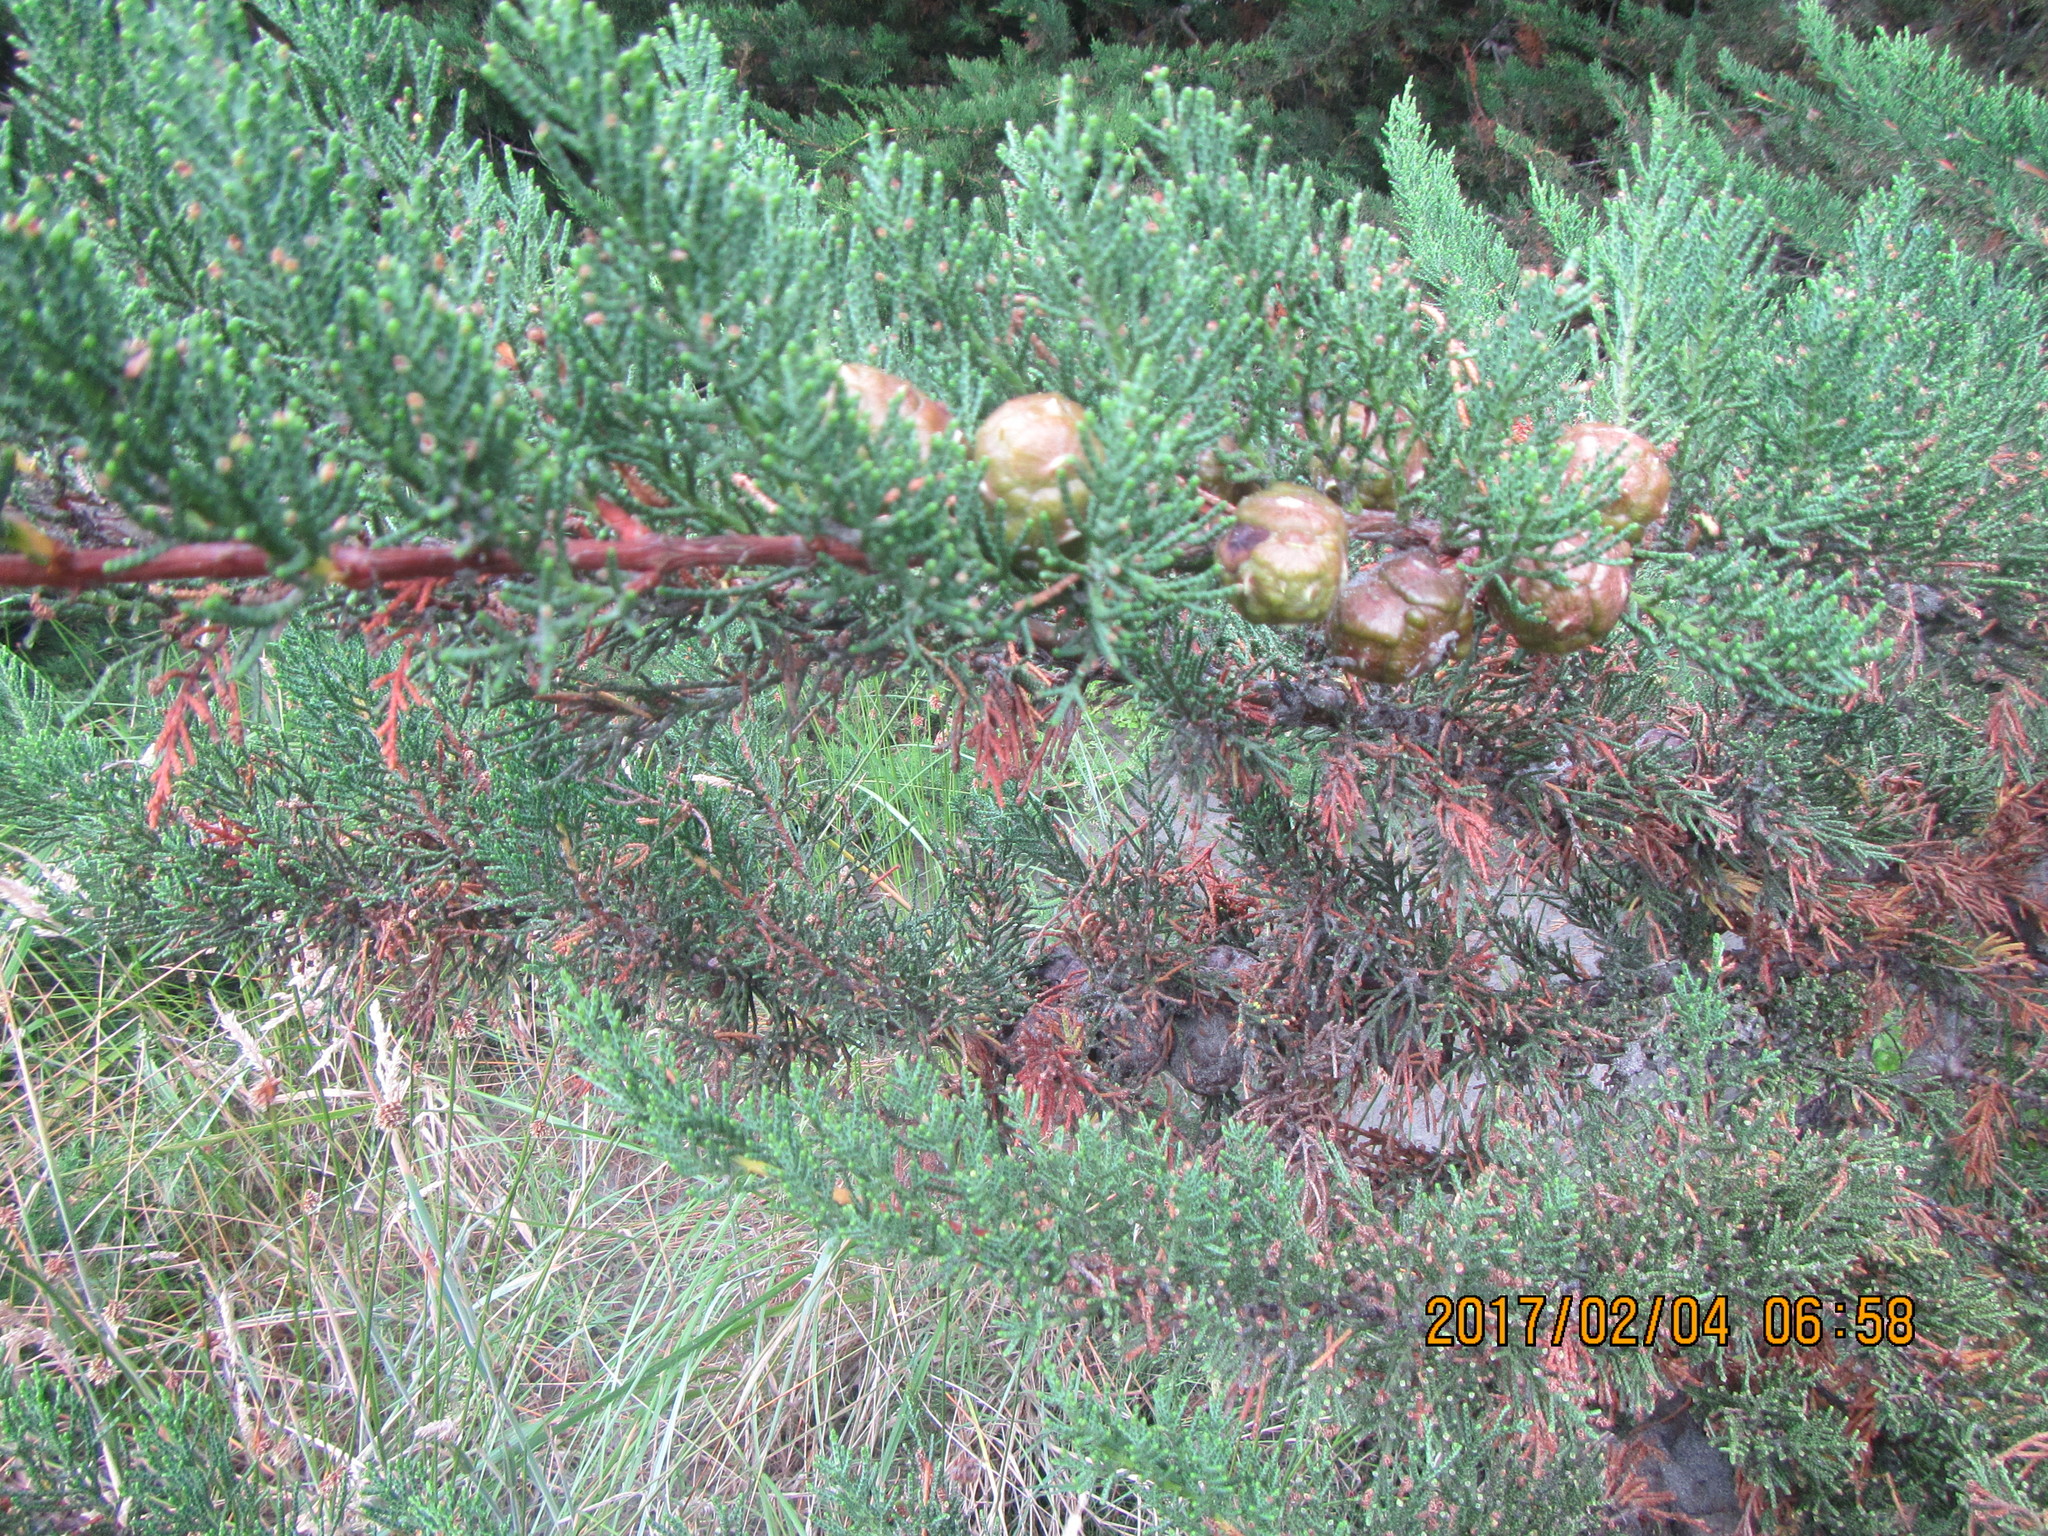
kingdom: Plantae
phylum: Tracheophyta
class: Pinopsida
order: Pinales
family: Cupressaceae
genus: Cupressus
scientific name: Cupressus macrocarpa
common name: Monterey cypress
